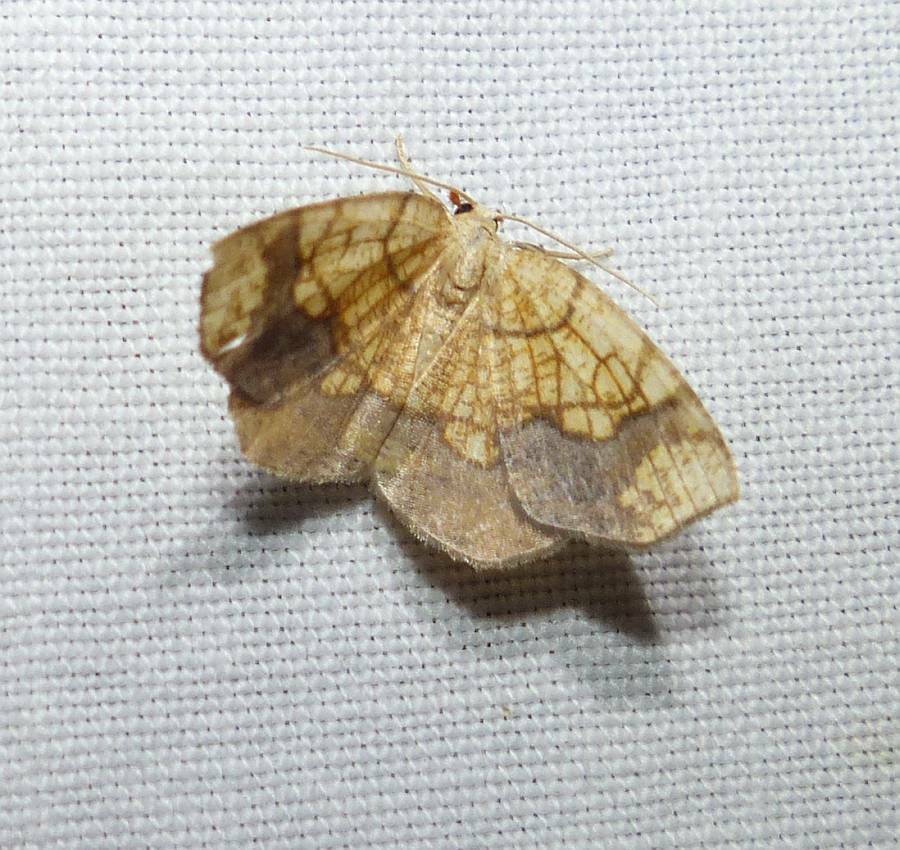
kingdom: Animalia
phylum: Arthropoda
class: Insecta
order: Lepidoptera
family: Geometridae
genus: Nematocampa
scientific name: Nematocampa resistaria
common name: Horned spanworm moth
